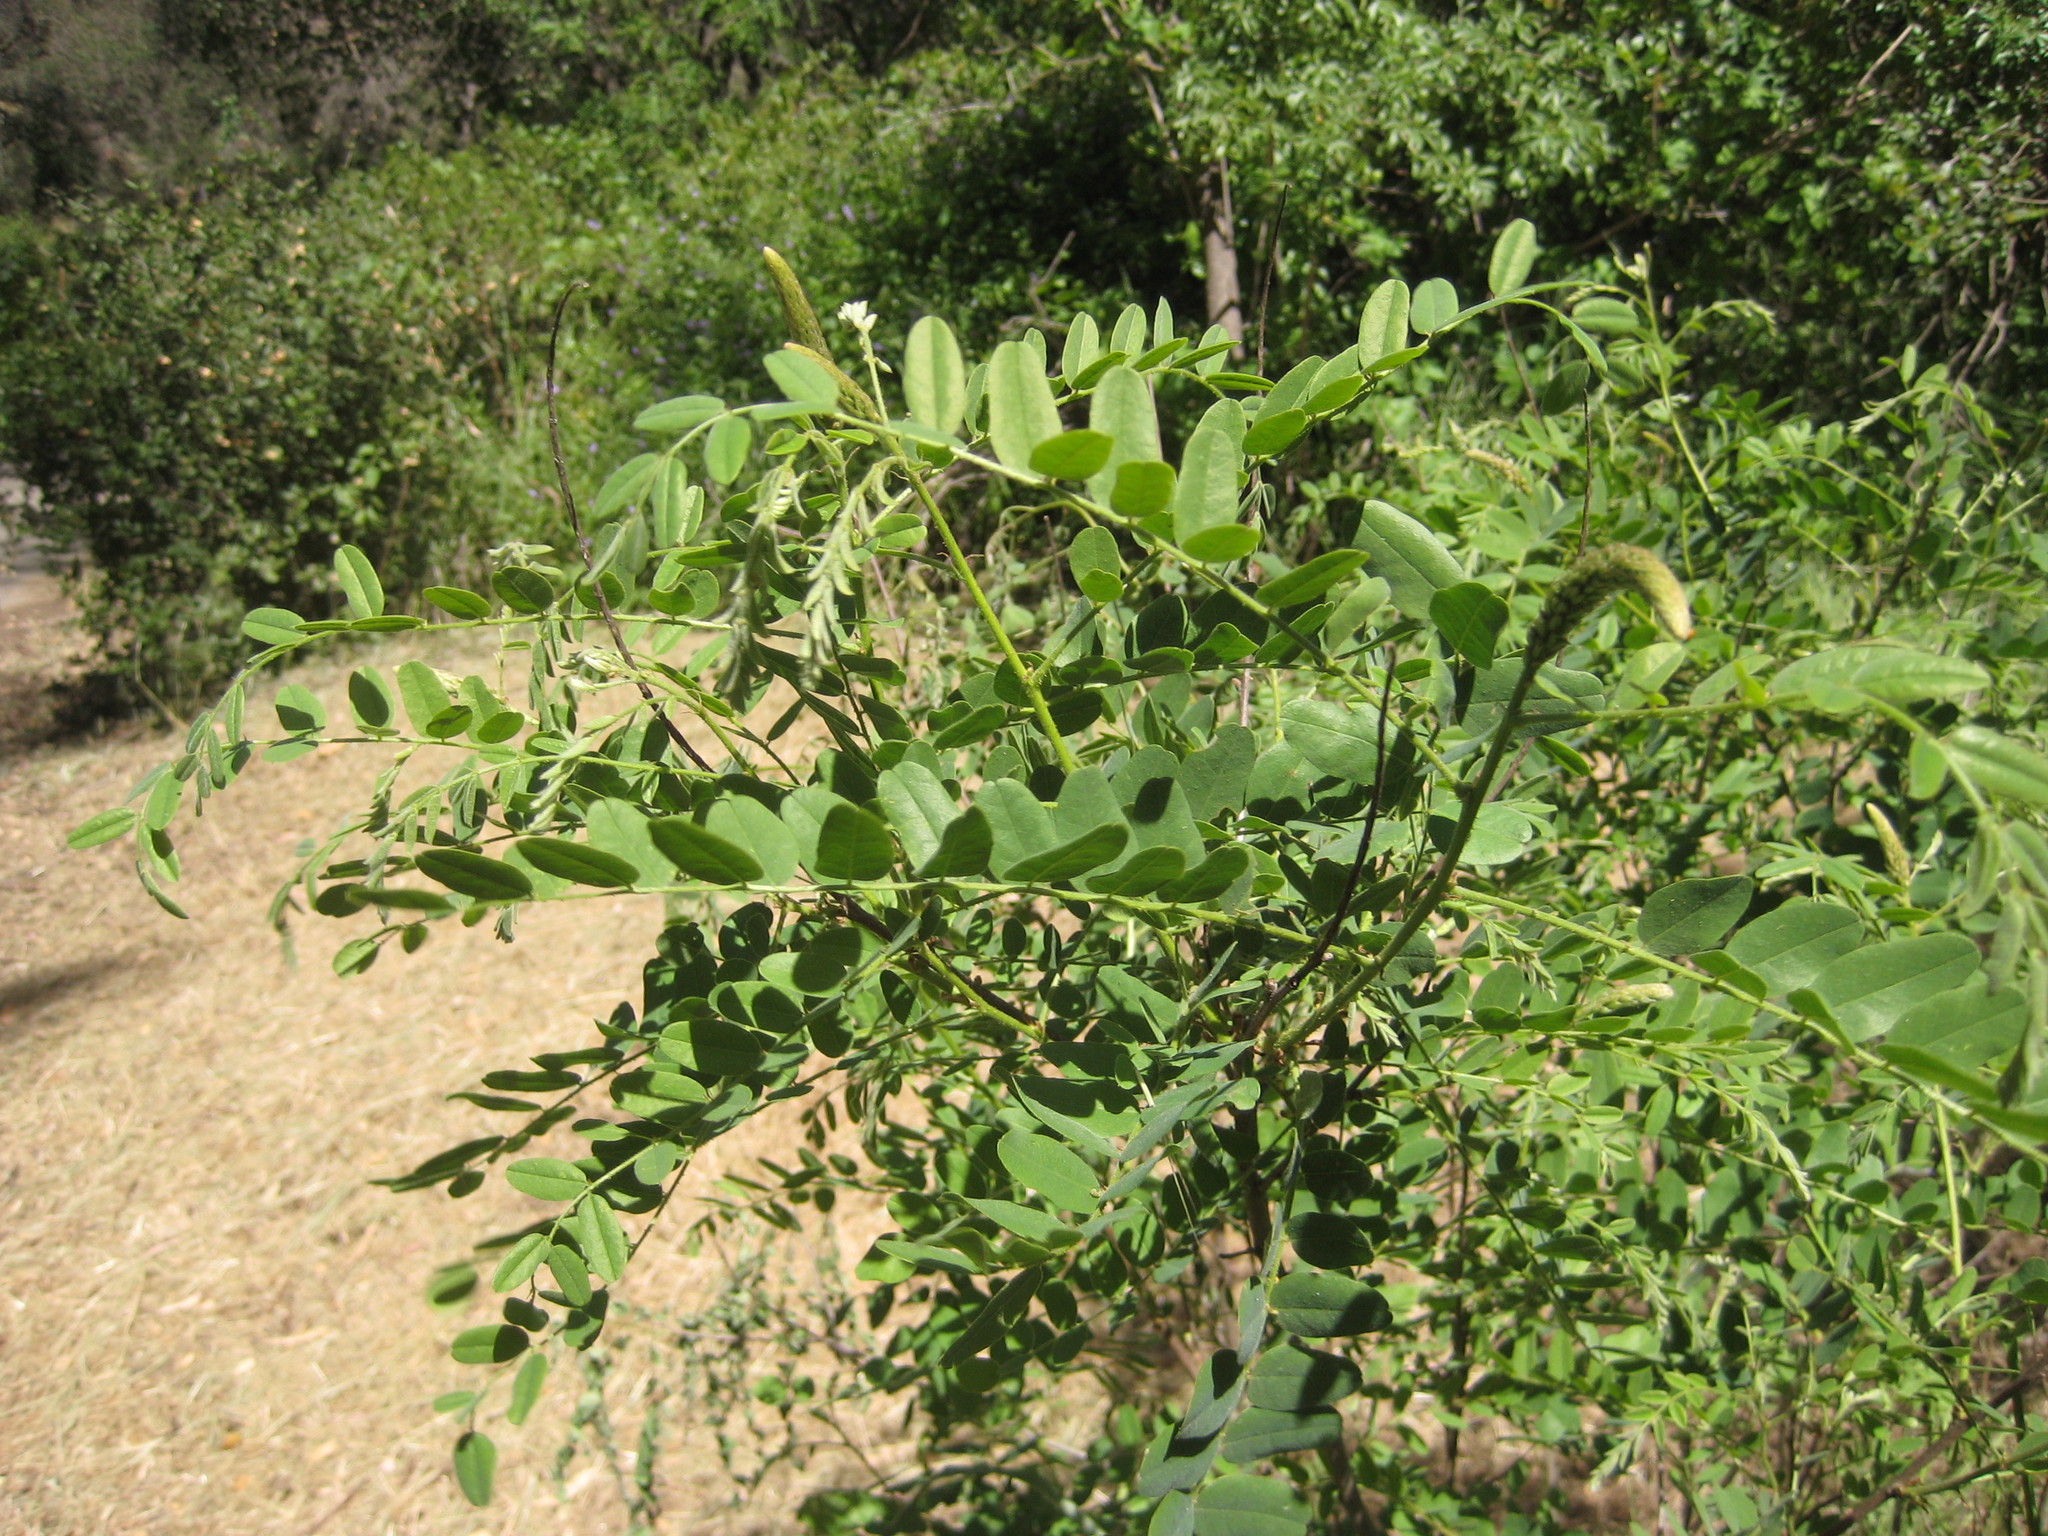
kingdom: Plantae
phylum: Tracheophyta
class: Magnoliopsida
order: Fabales
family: Fabaceae
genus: Amorpha
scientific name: Amorpha californica
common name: California indigobush
